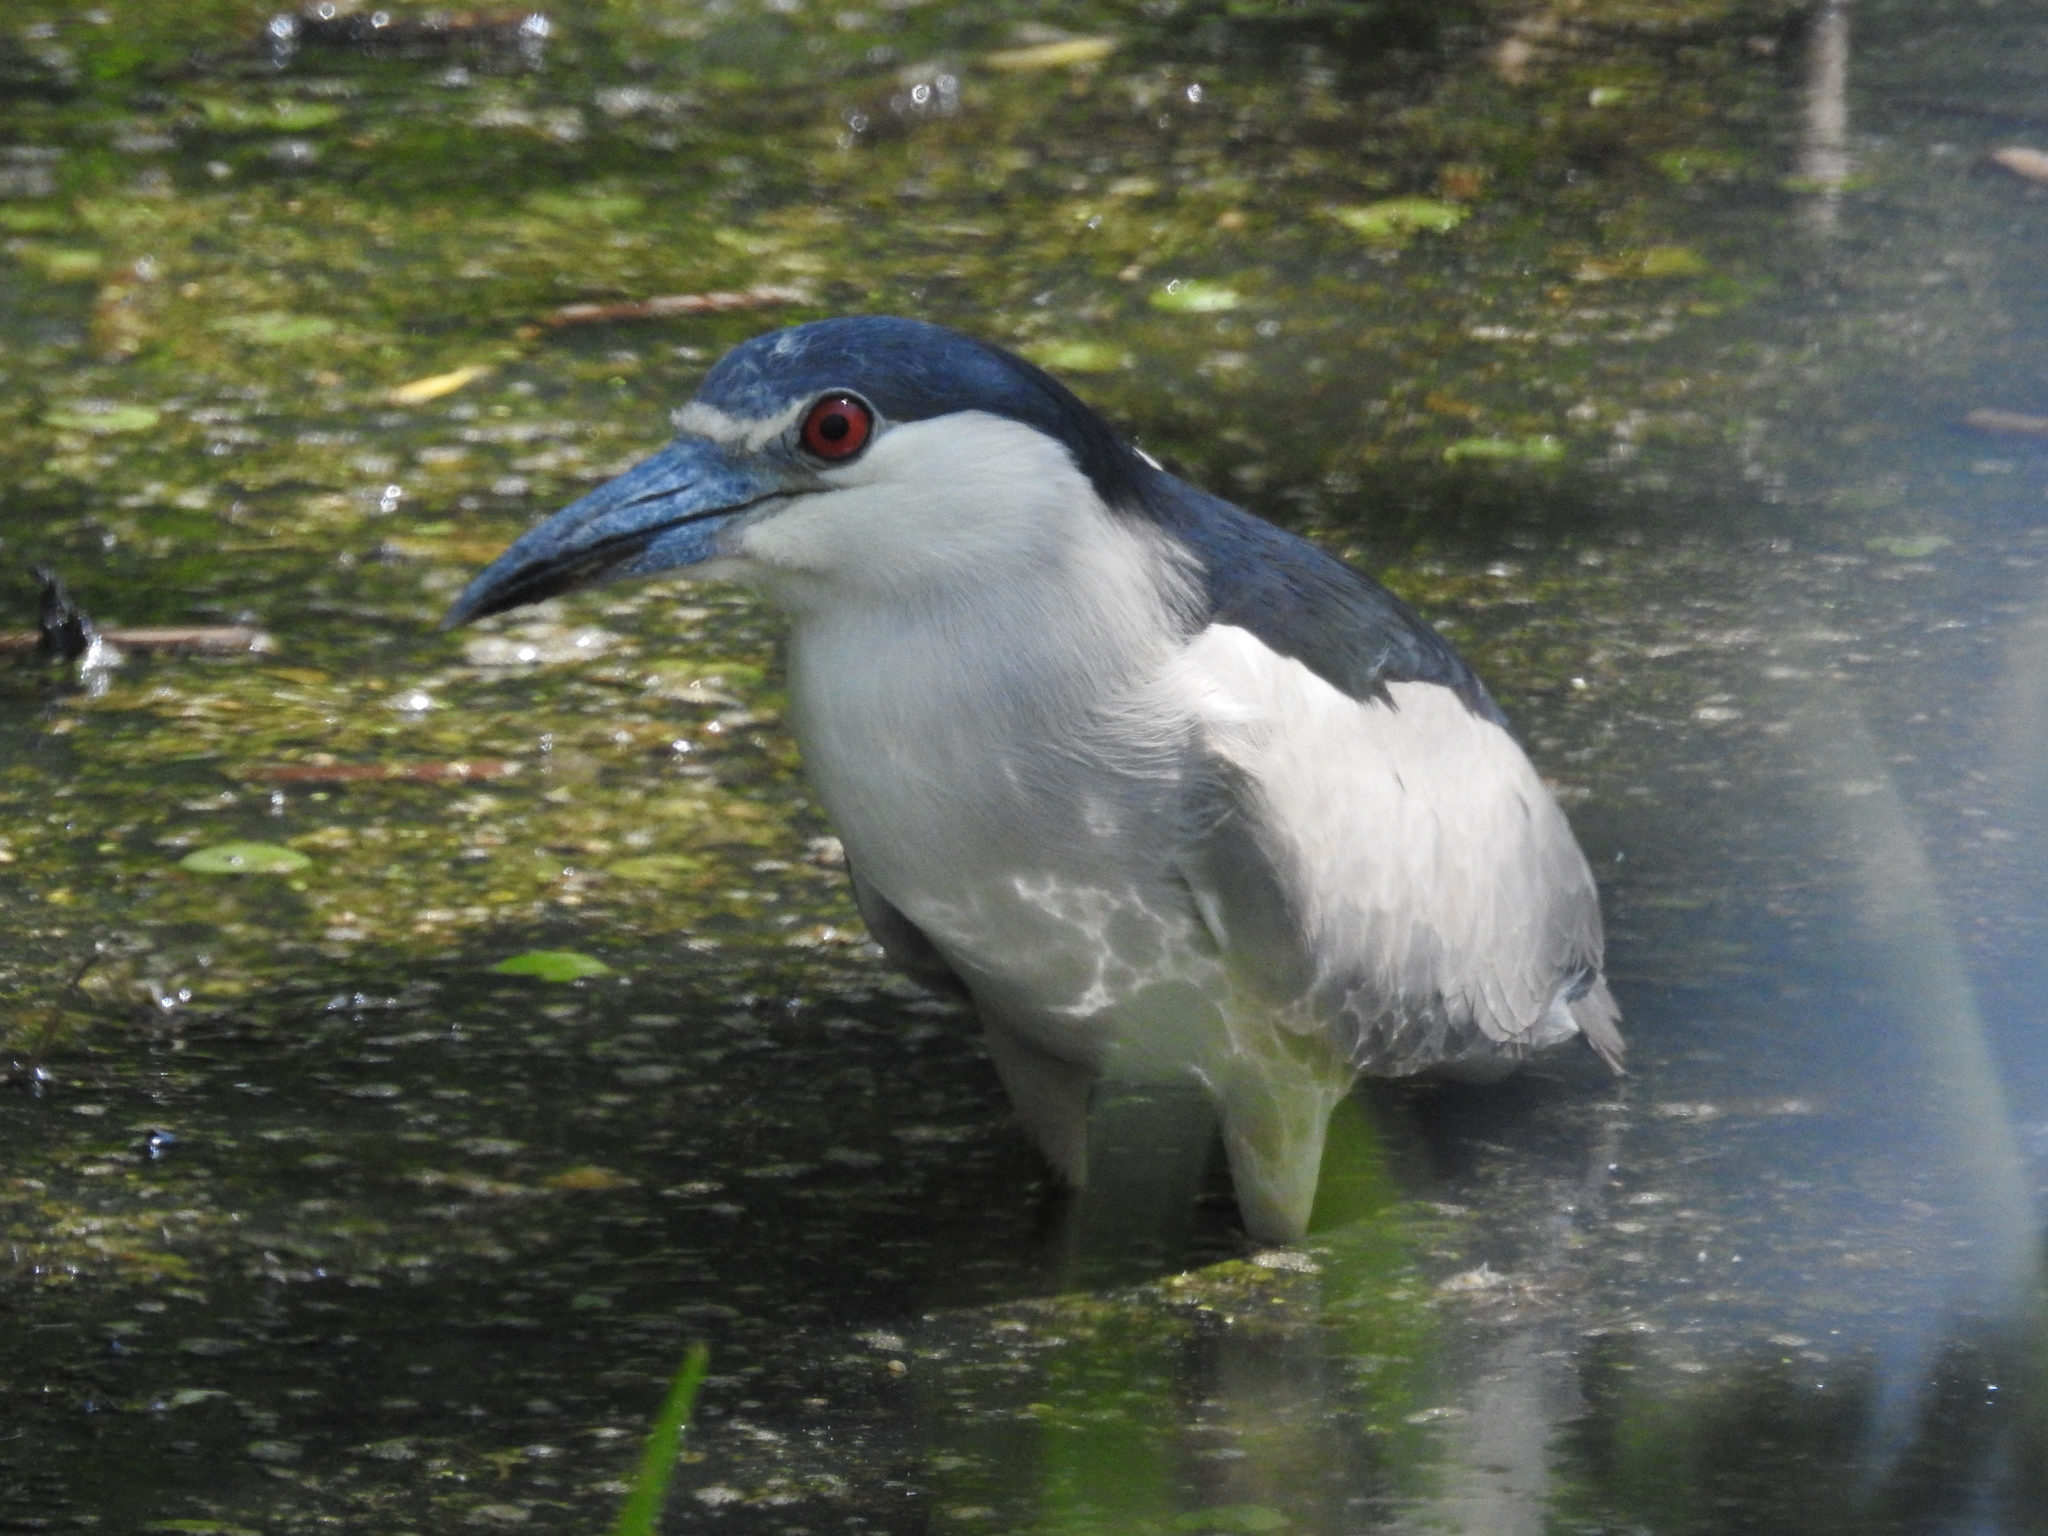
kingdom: Animalia
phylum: Chordata
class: Aves
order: Pelecaniformes
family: Ardeidae
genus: Nycticorax
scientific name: Nycticorax nycticorax
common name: Black-crowned night heron
